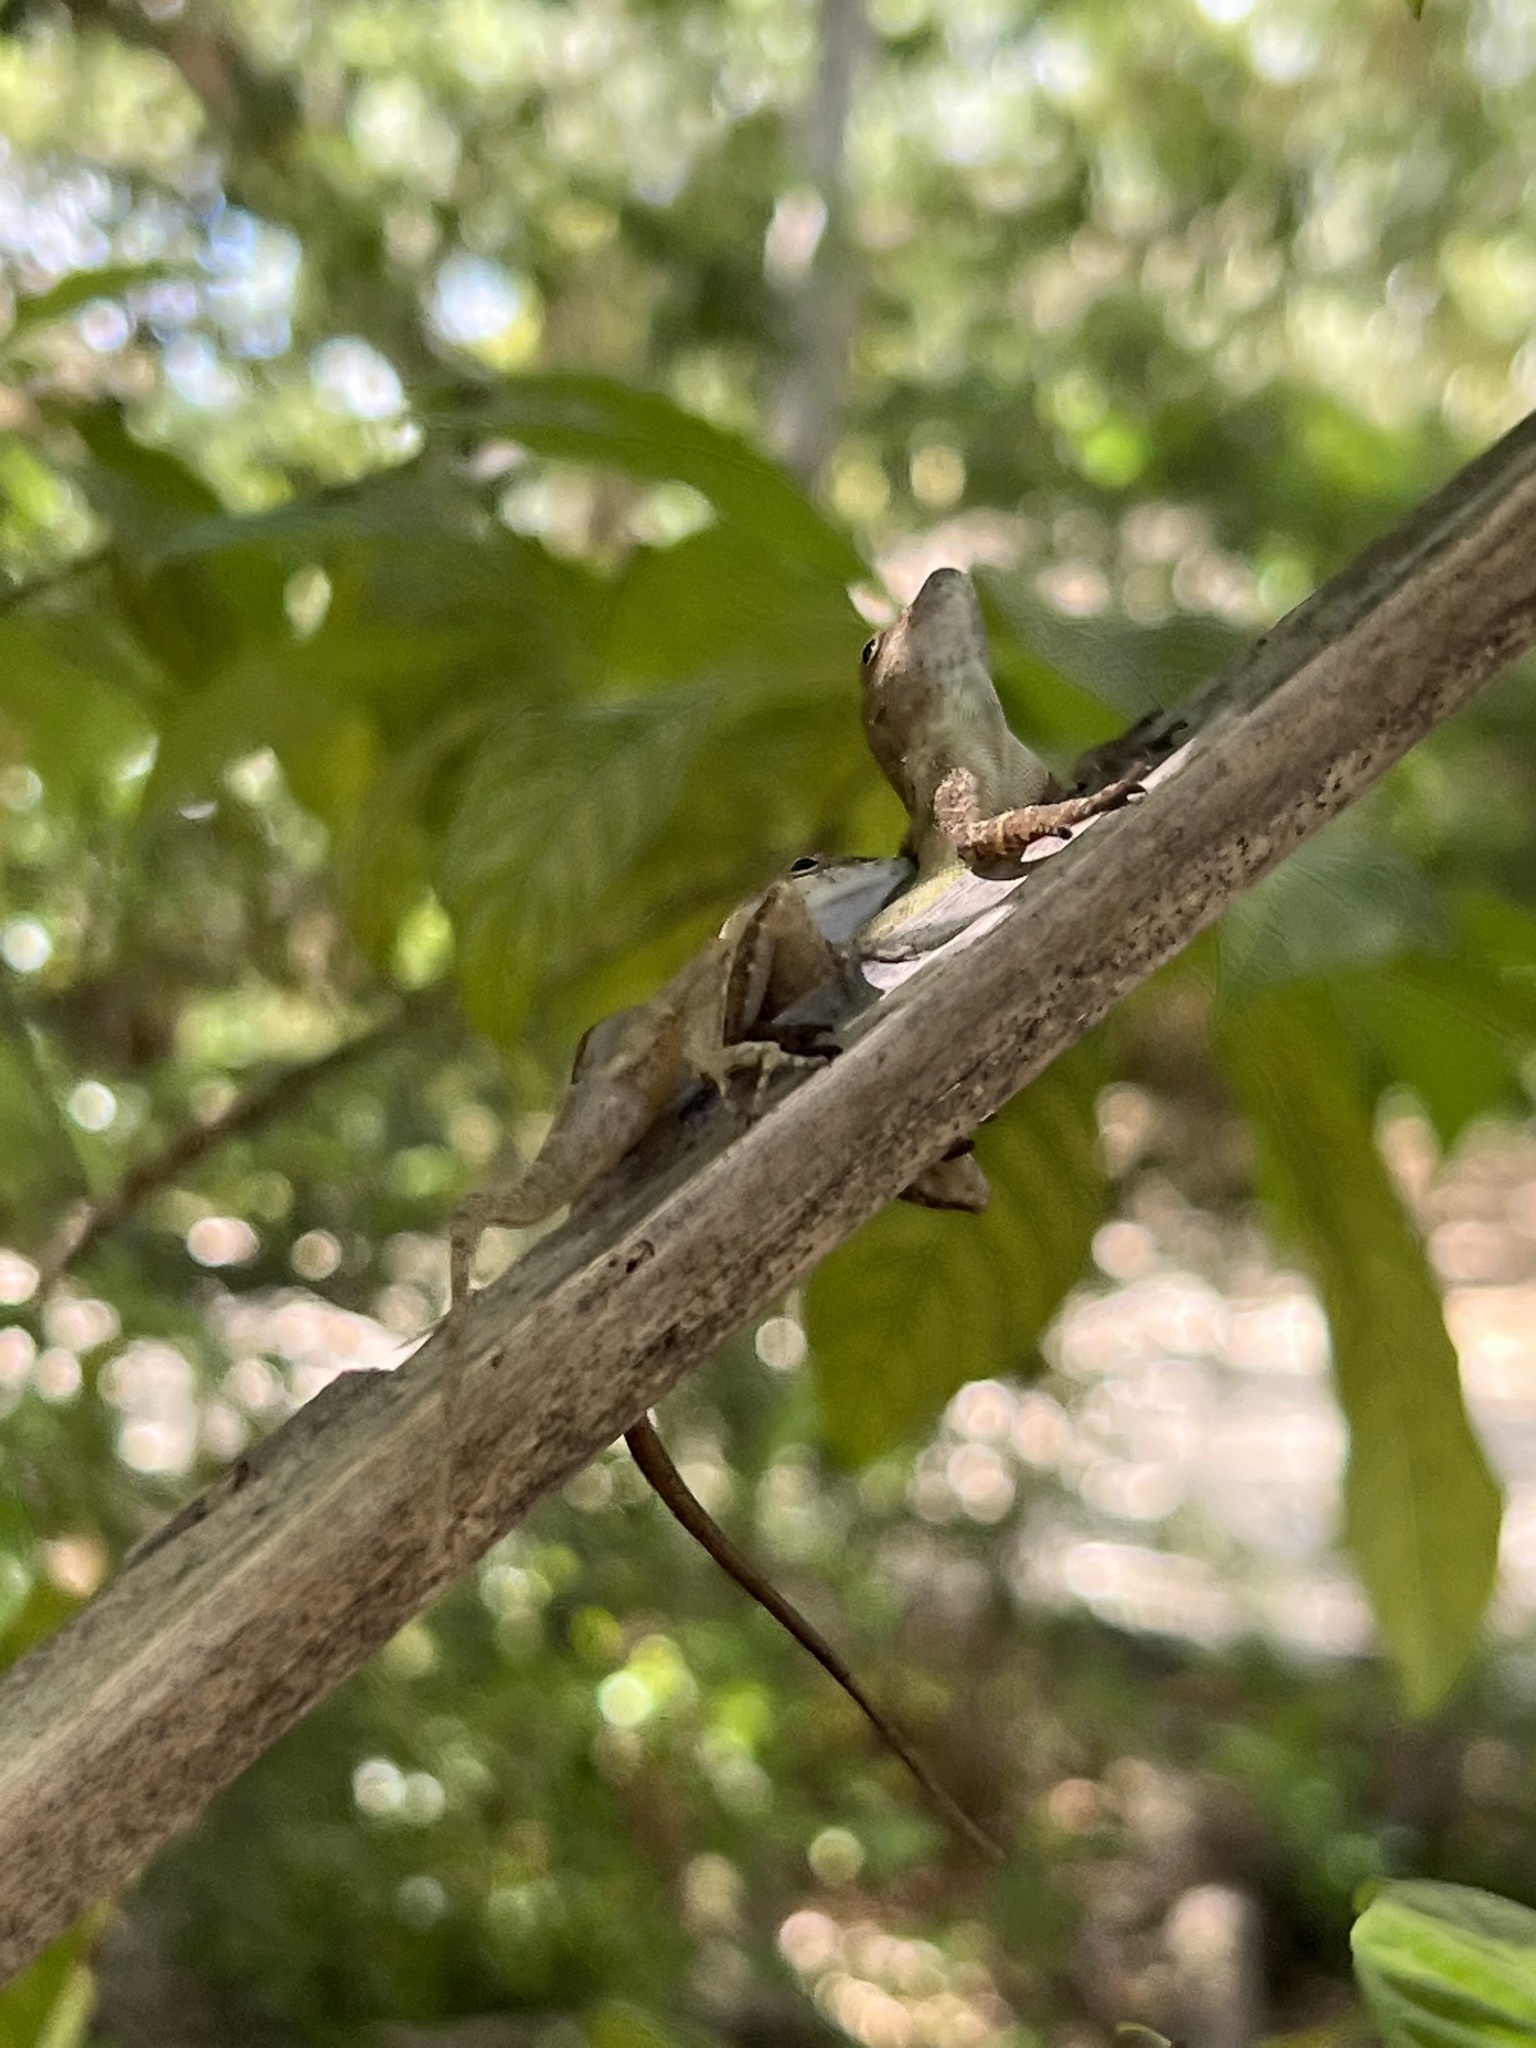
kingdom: Animalia
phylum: Chordata
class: Squamata
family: Dactyloidae
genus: Anolis
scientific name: Anolis cristatellus
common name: Crested anole
